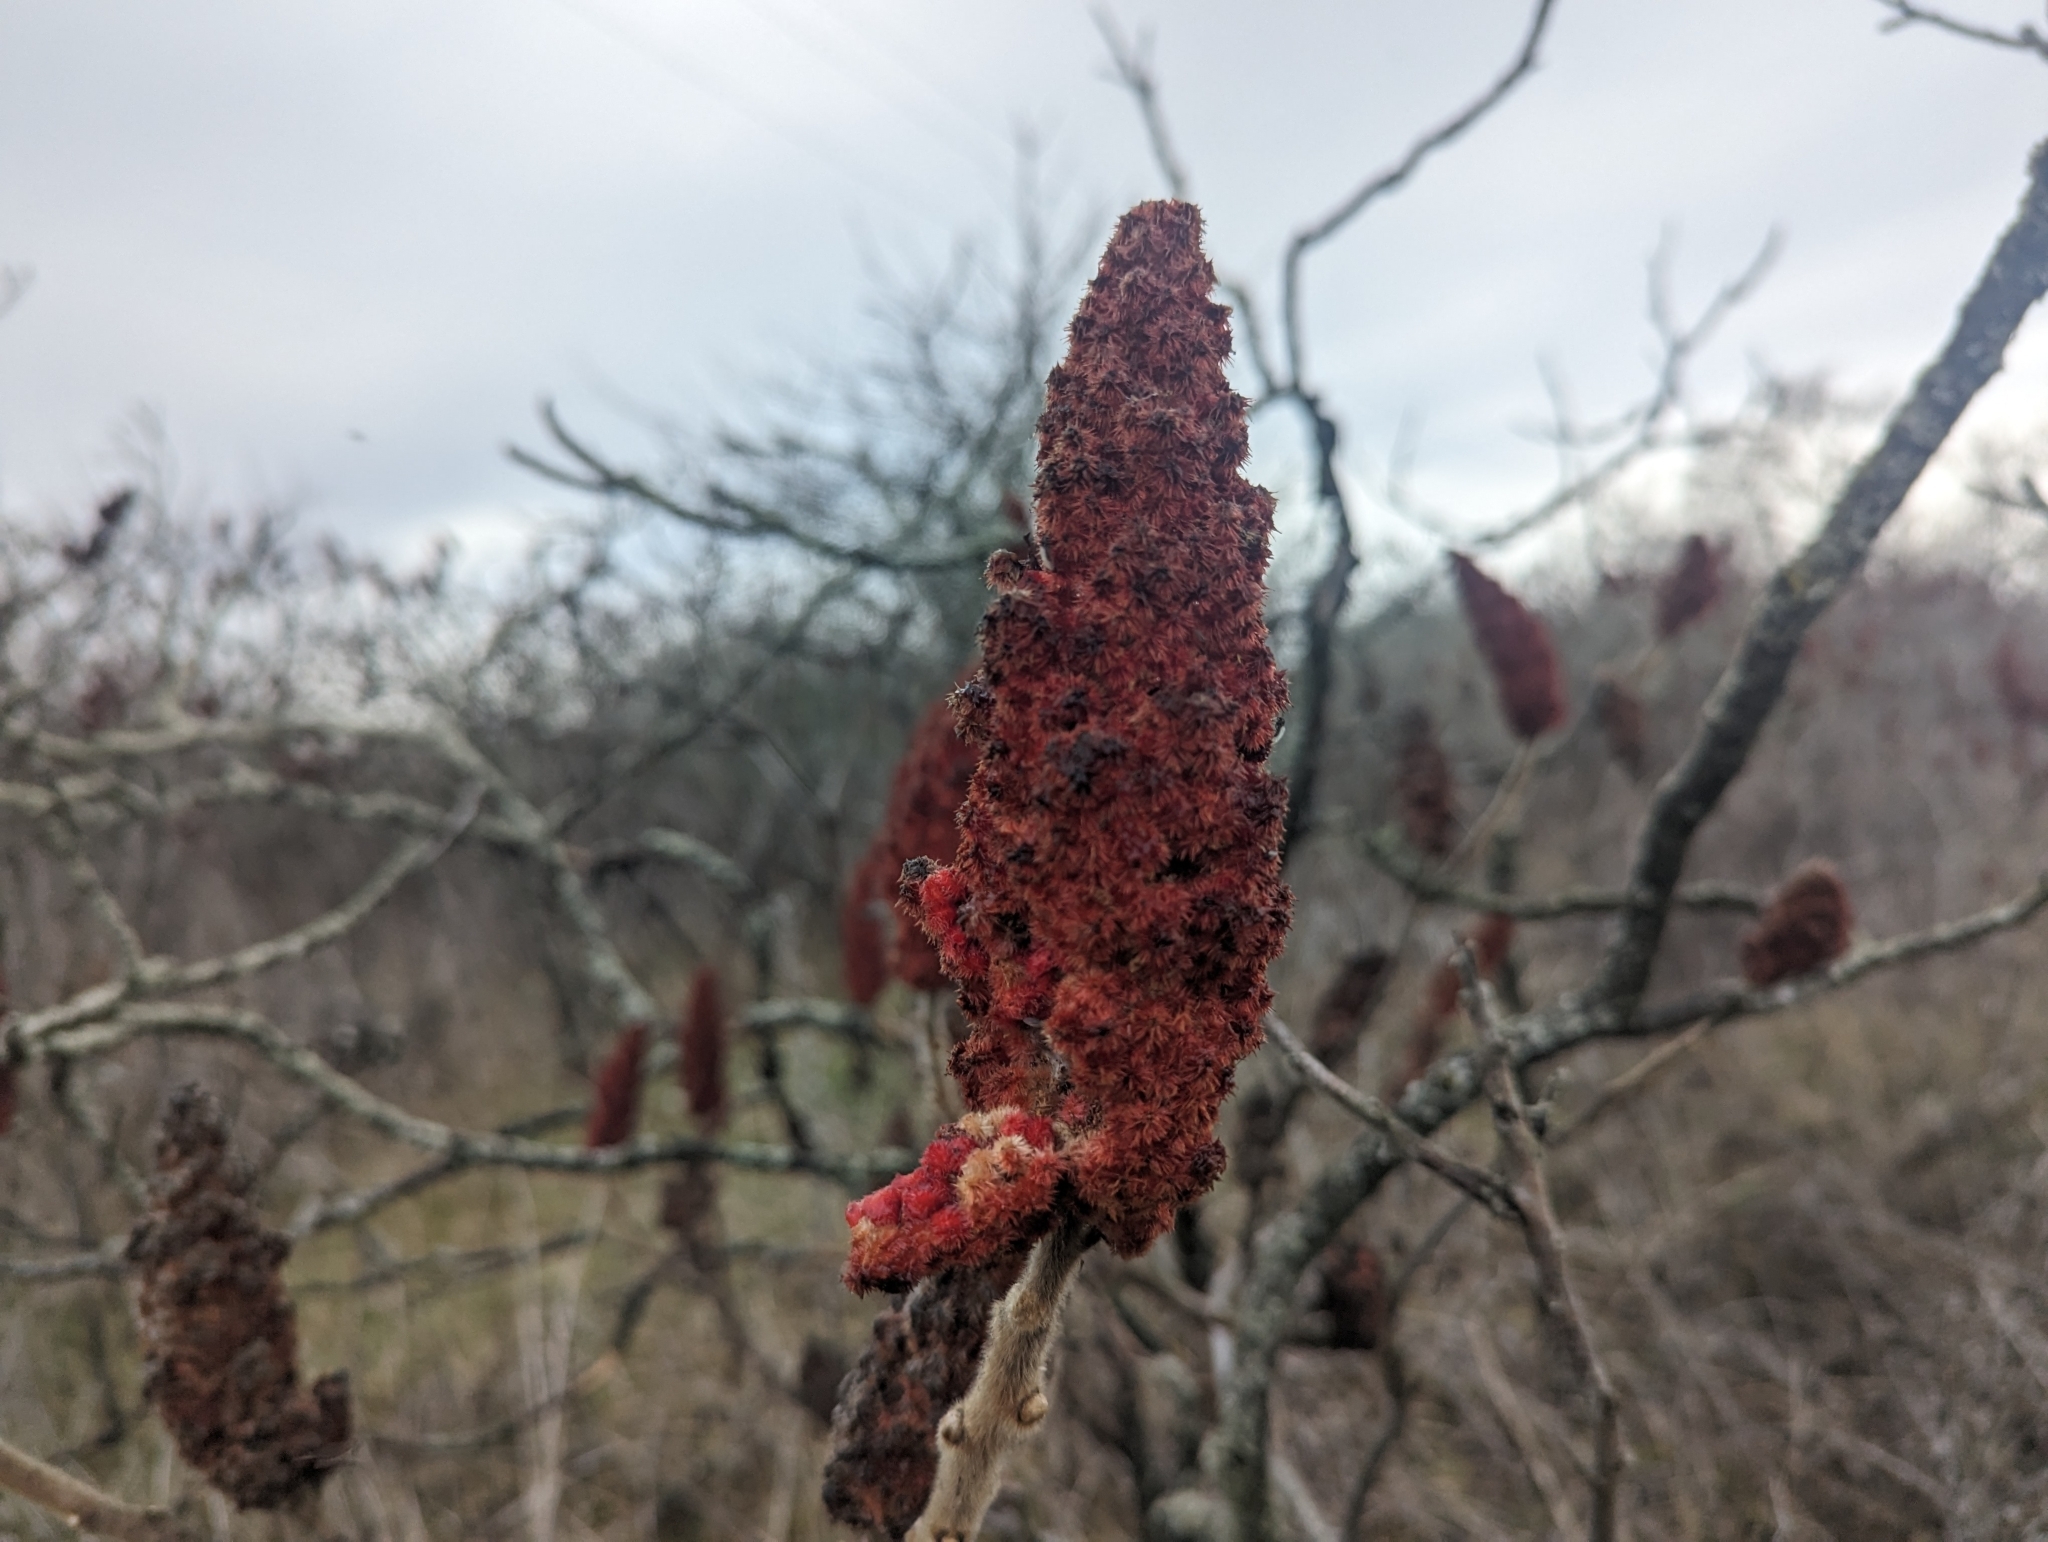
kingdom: Plantae
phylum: Tracheophyta
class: Magnoliopsida
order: Sapindales
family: Anacardiaceae
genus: Rhus
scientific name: Rhus typhina
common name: Staghorn sumac
